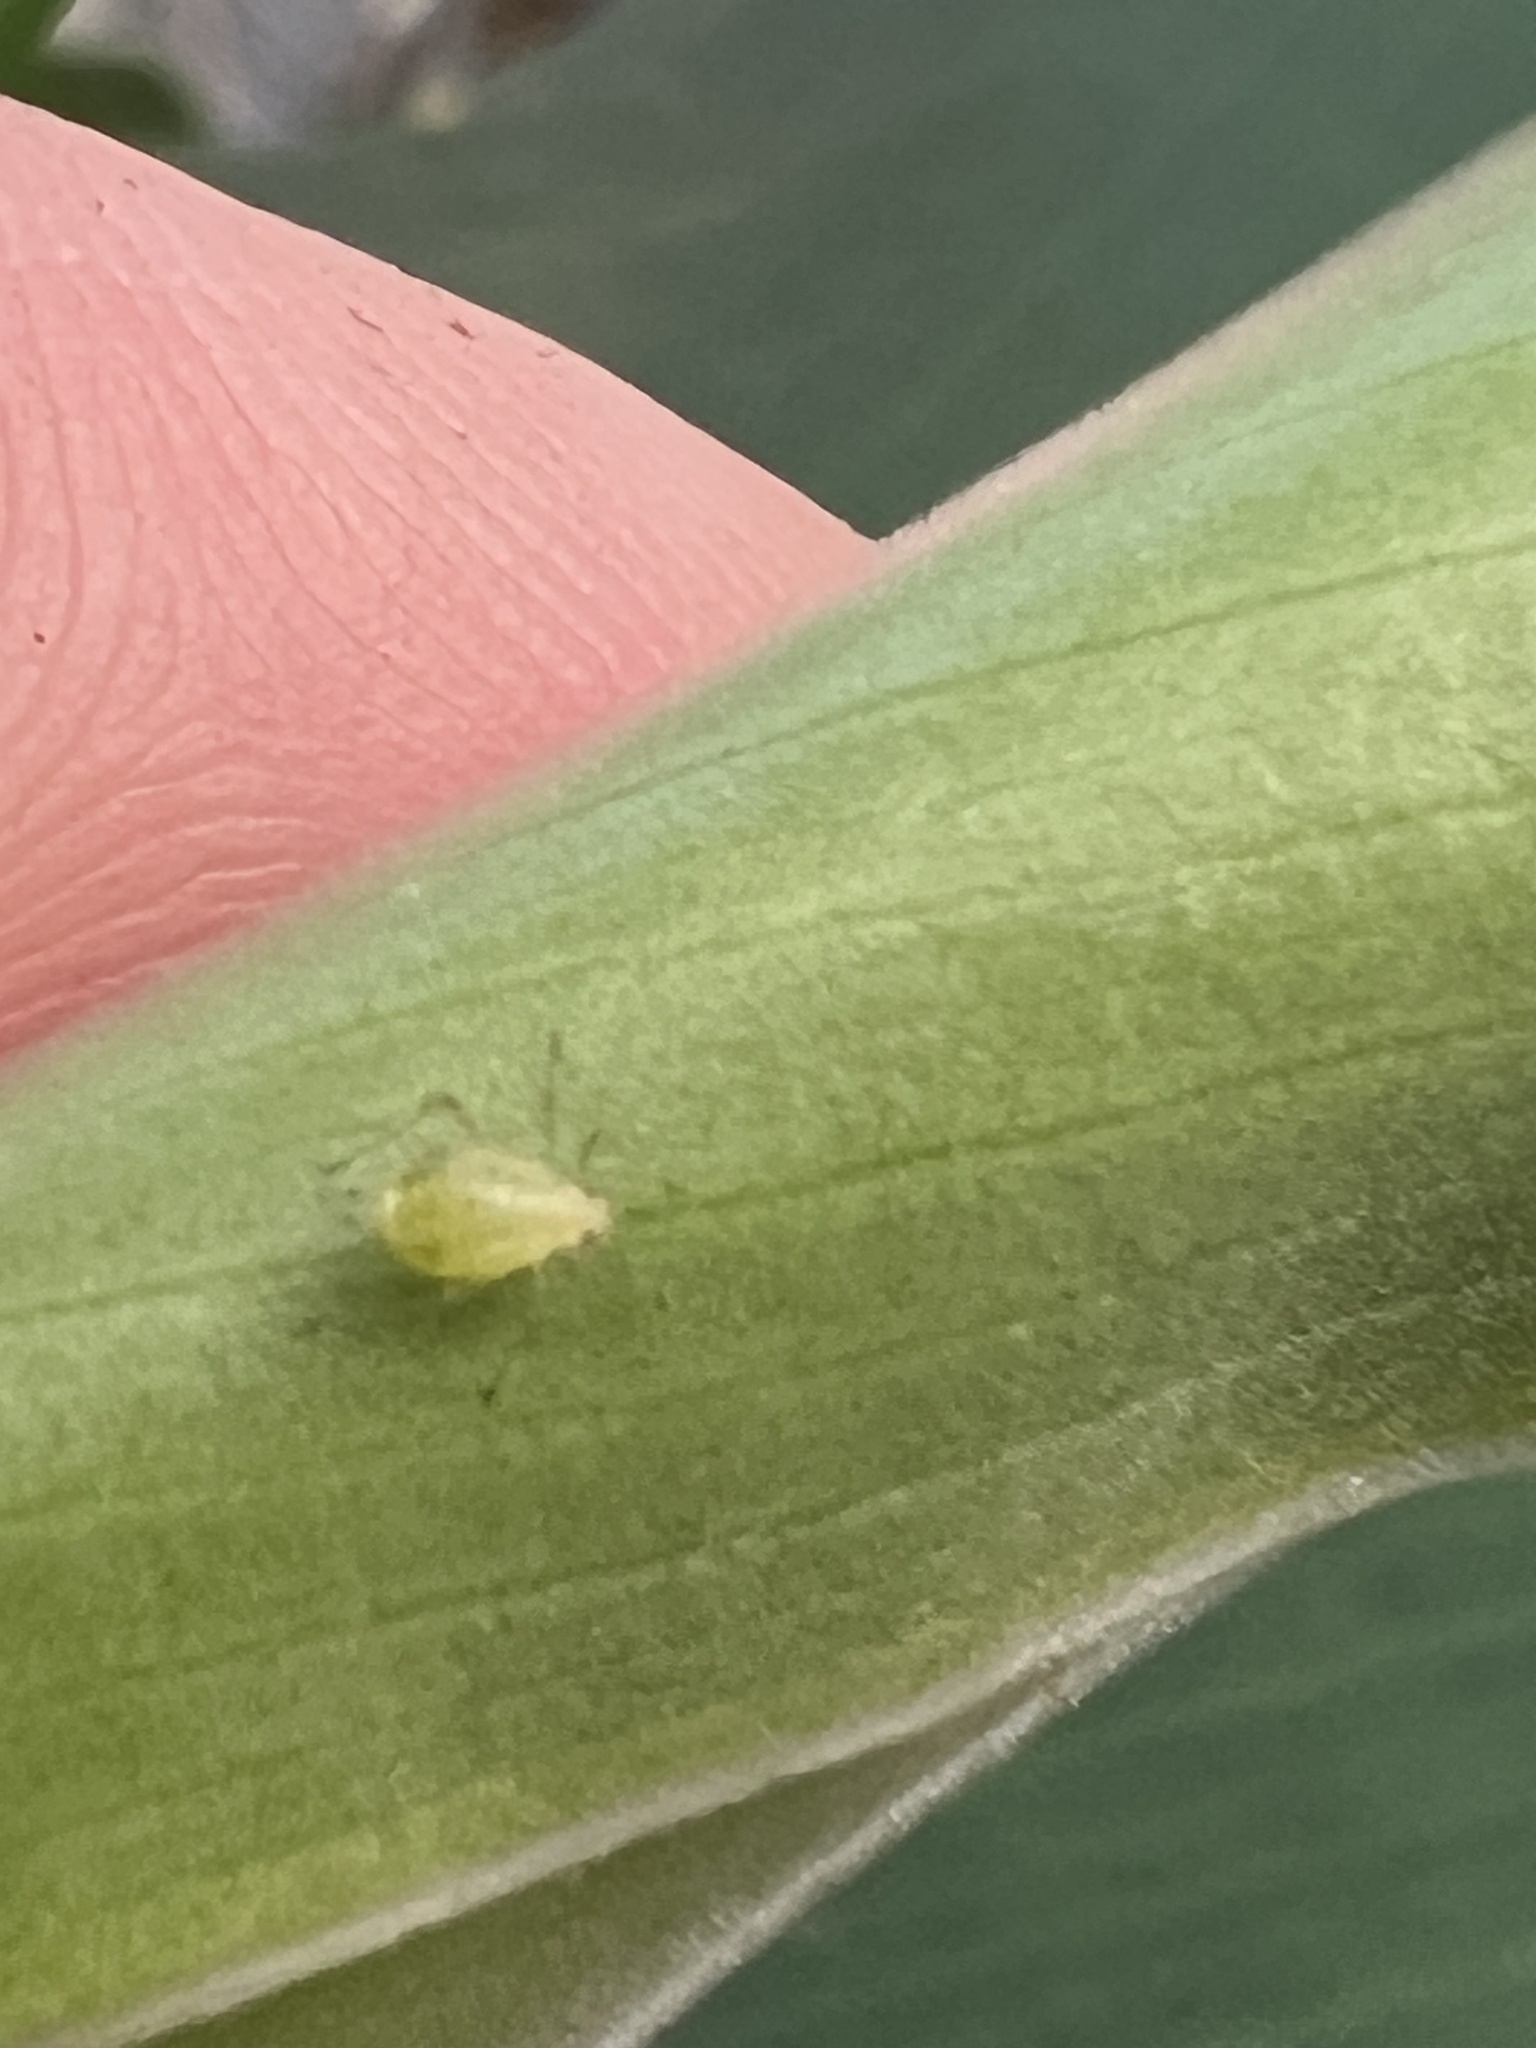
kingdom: Animalia
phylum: Arthropoda
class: Insecta
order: Hemiptera
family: Aphididae
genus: Aulacorthum
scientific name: Aulacorthum solani
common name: Foxglove aphid
